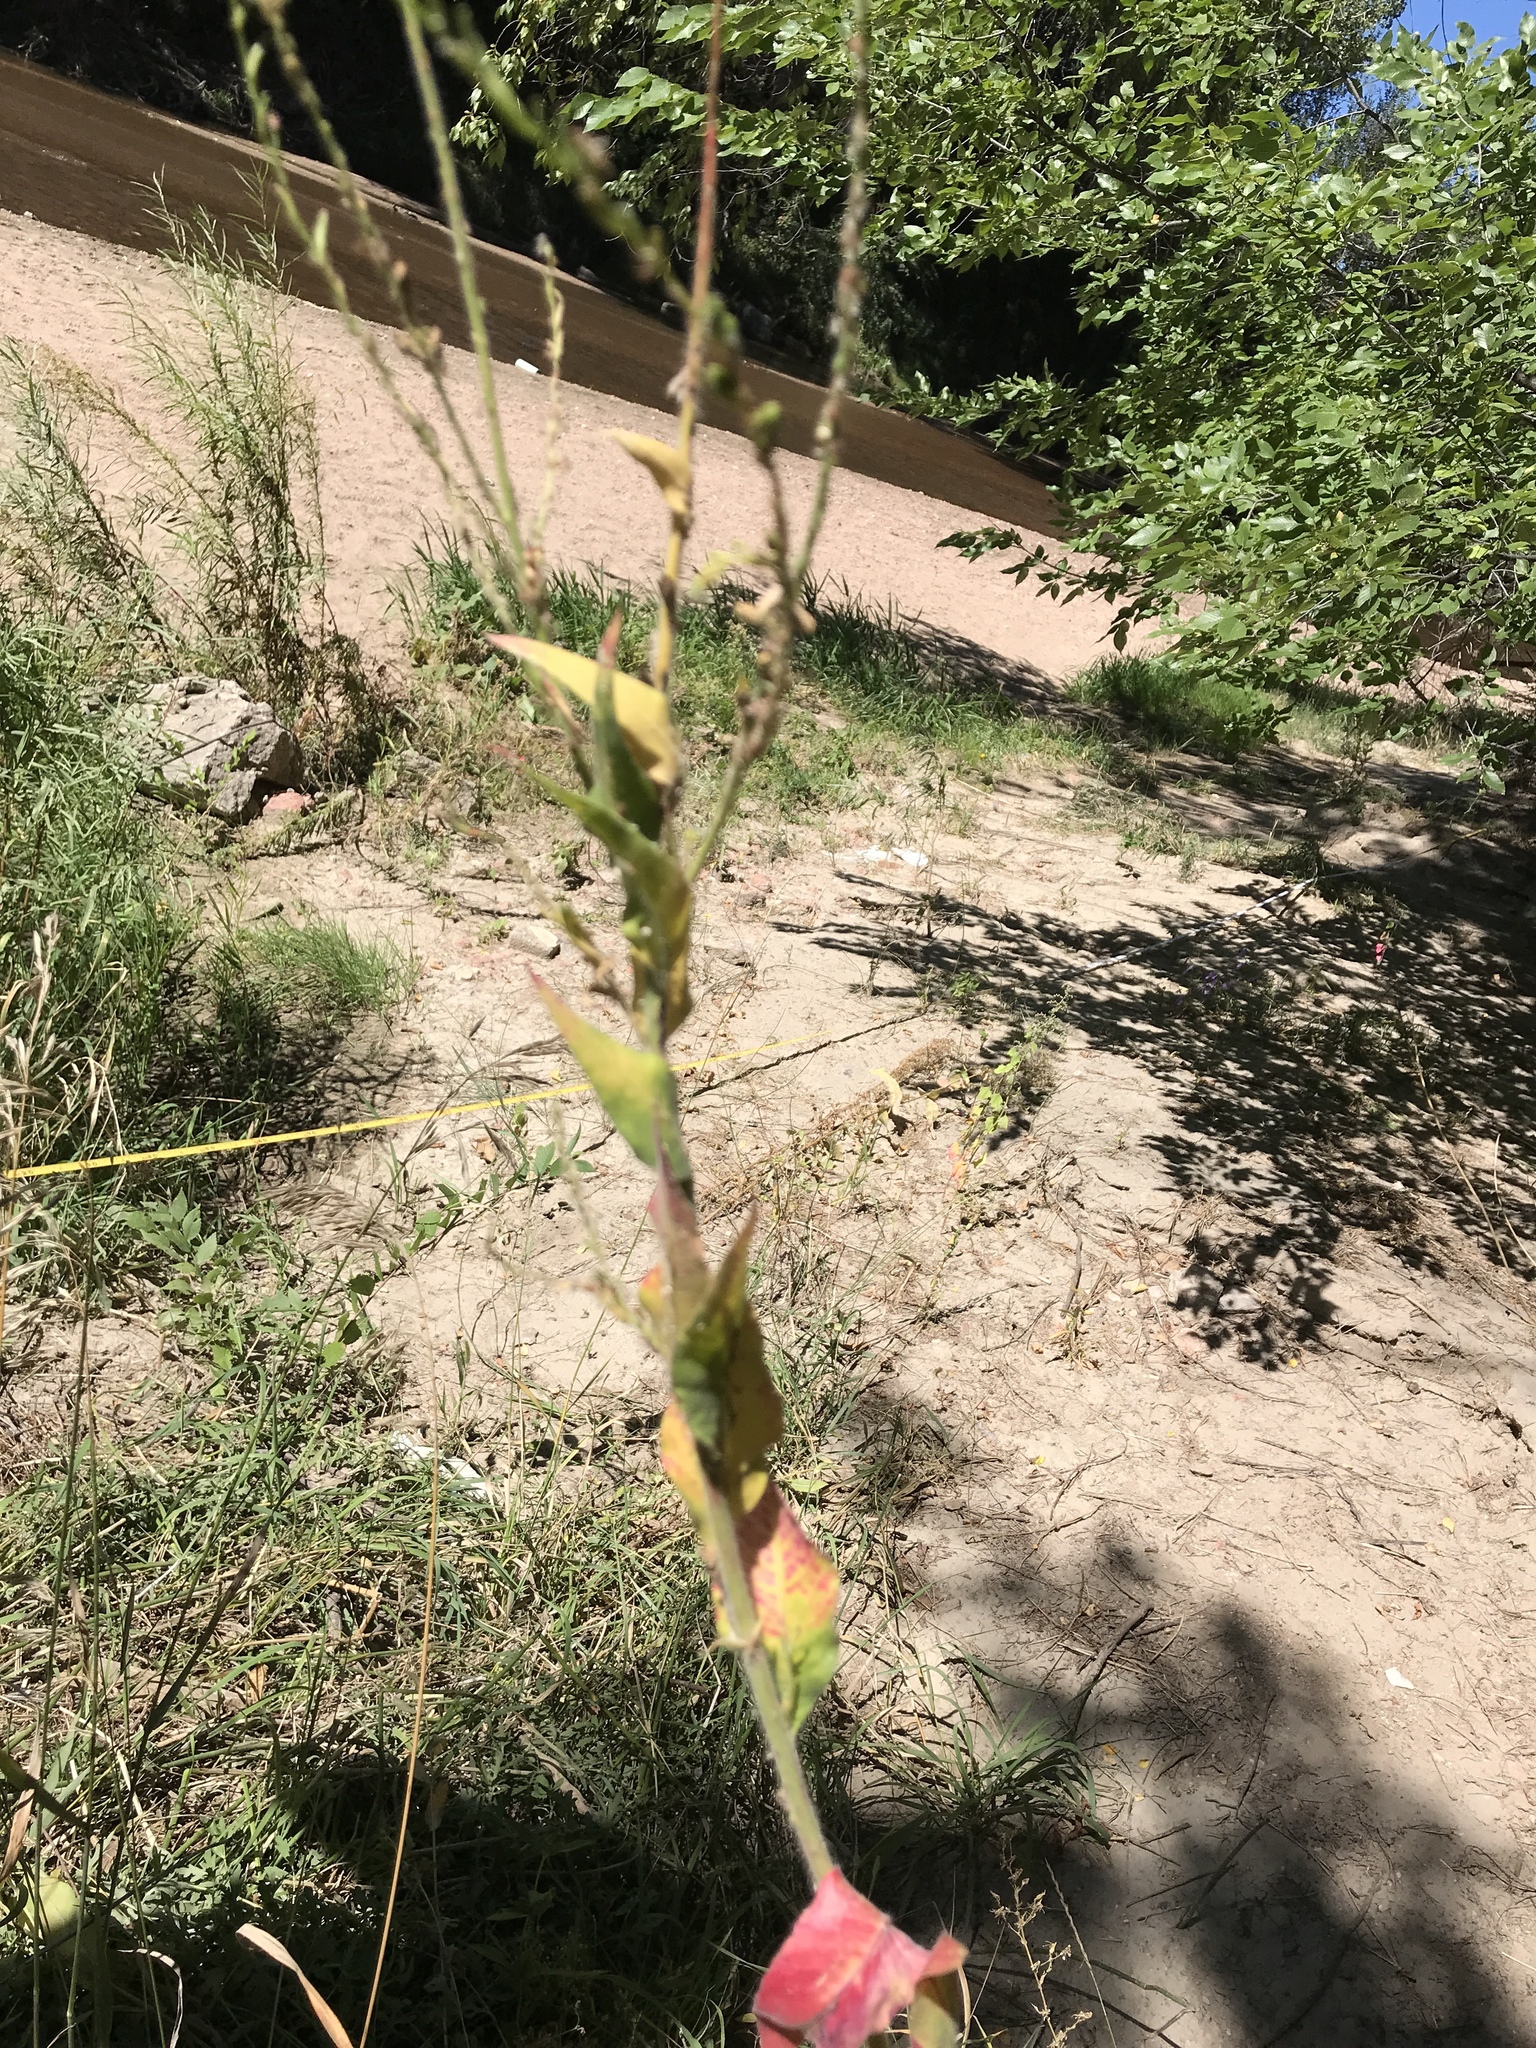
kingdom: Plantae
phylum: Tracheophyta
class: Magnoliopsida
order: Myrtales
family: Onagraceae
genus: Oenothera
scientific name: Oenothera curtiflora
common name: Velvetweed
